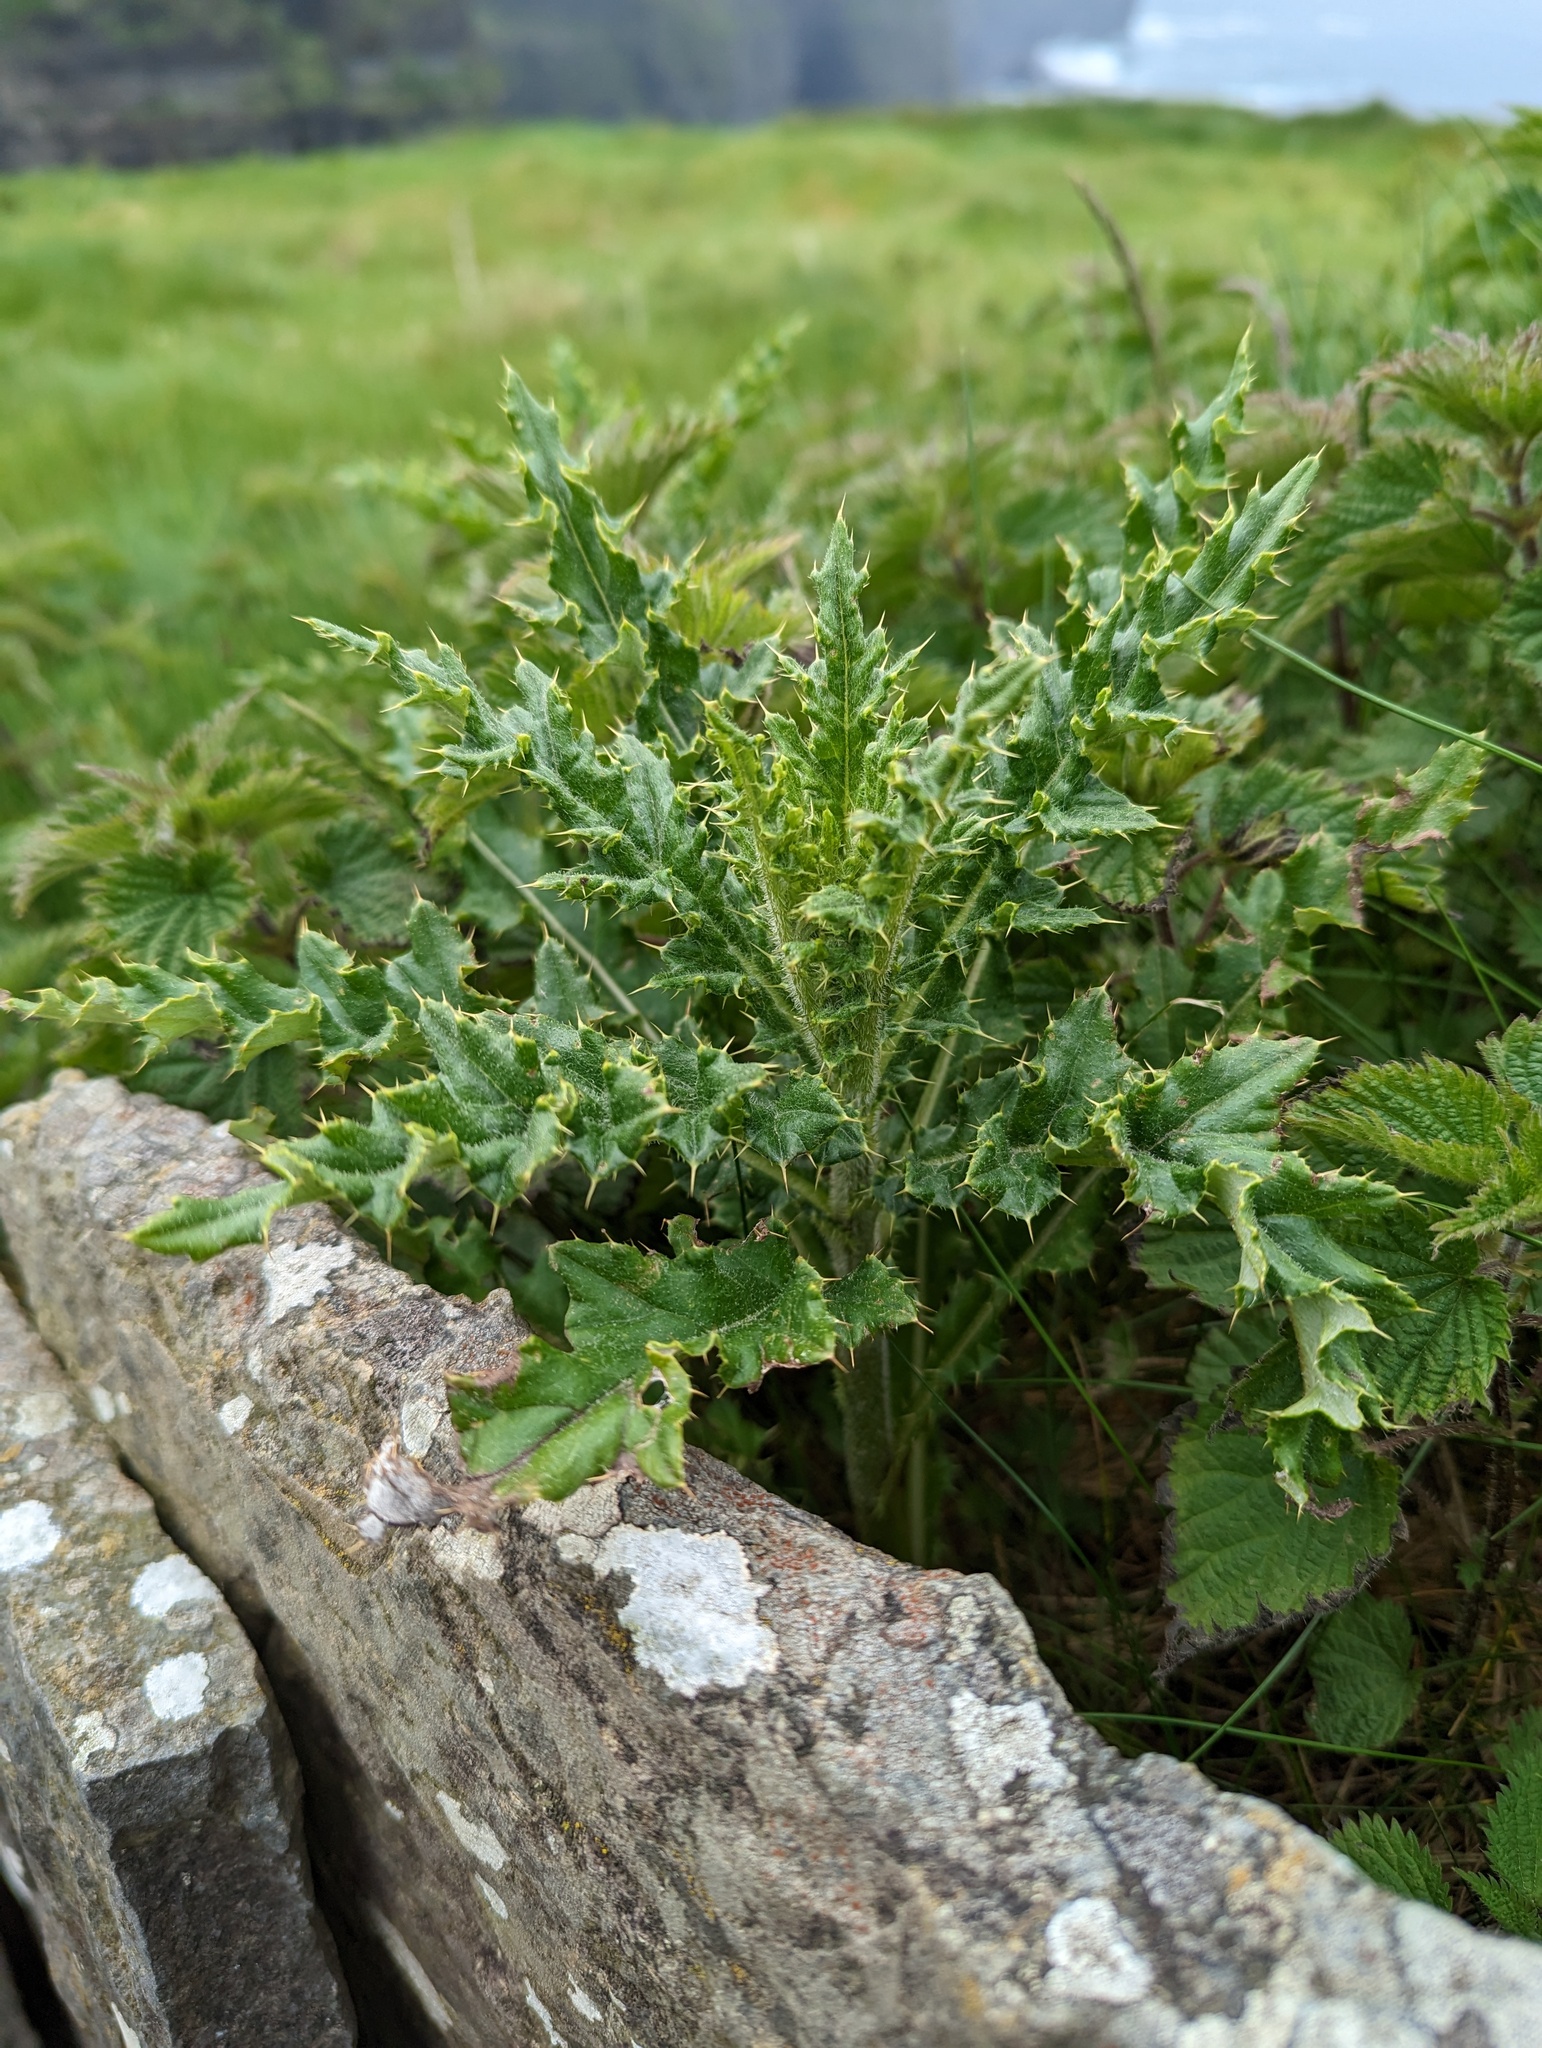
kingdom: Plantae
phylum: Tracheophyta
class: Magnoliopsida
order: Asterales
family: Asteraceae
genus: Cirsium
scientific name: Cirsium arvense
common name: Creeping thistle
